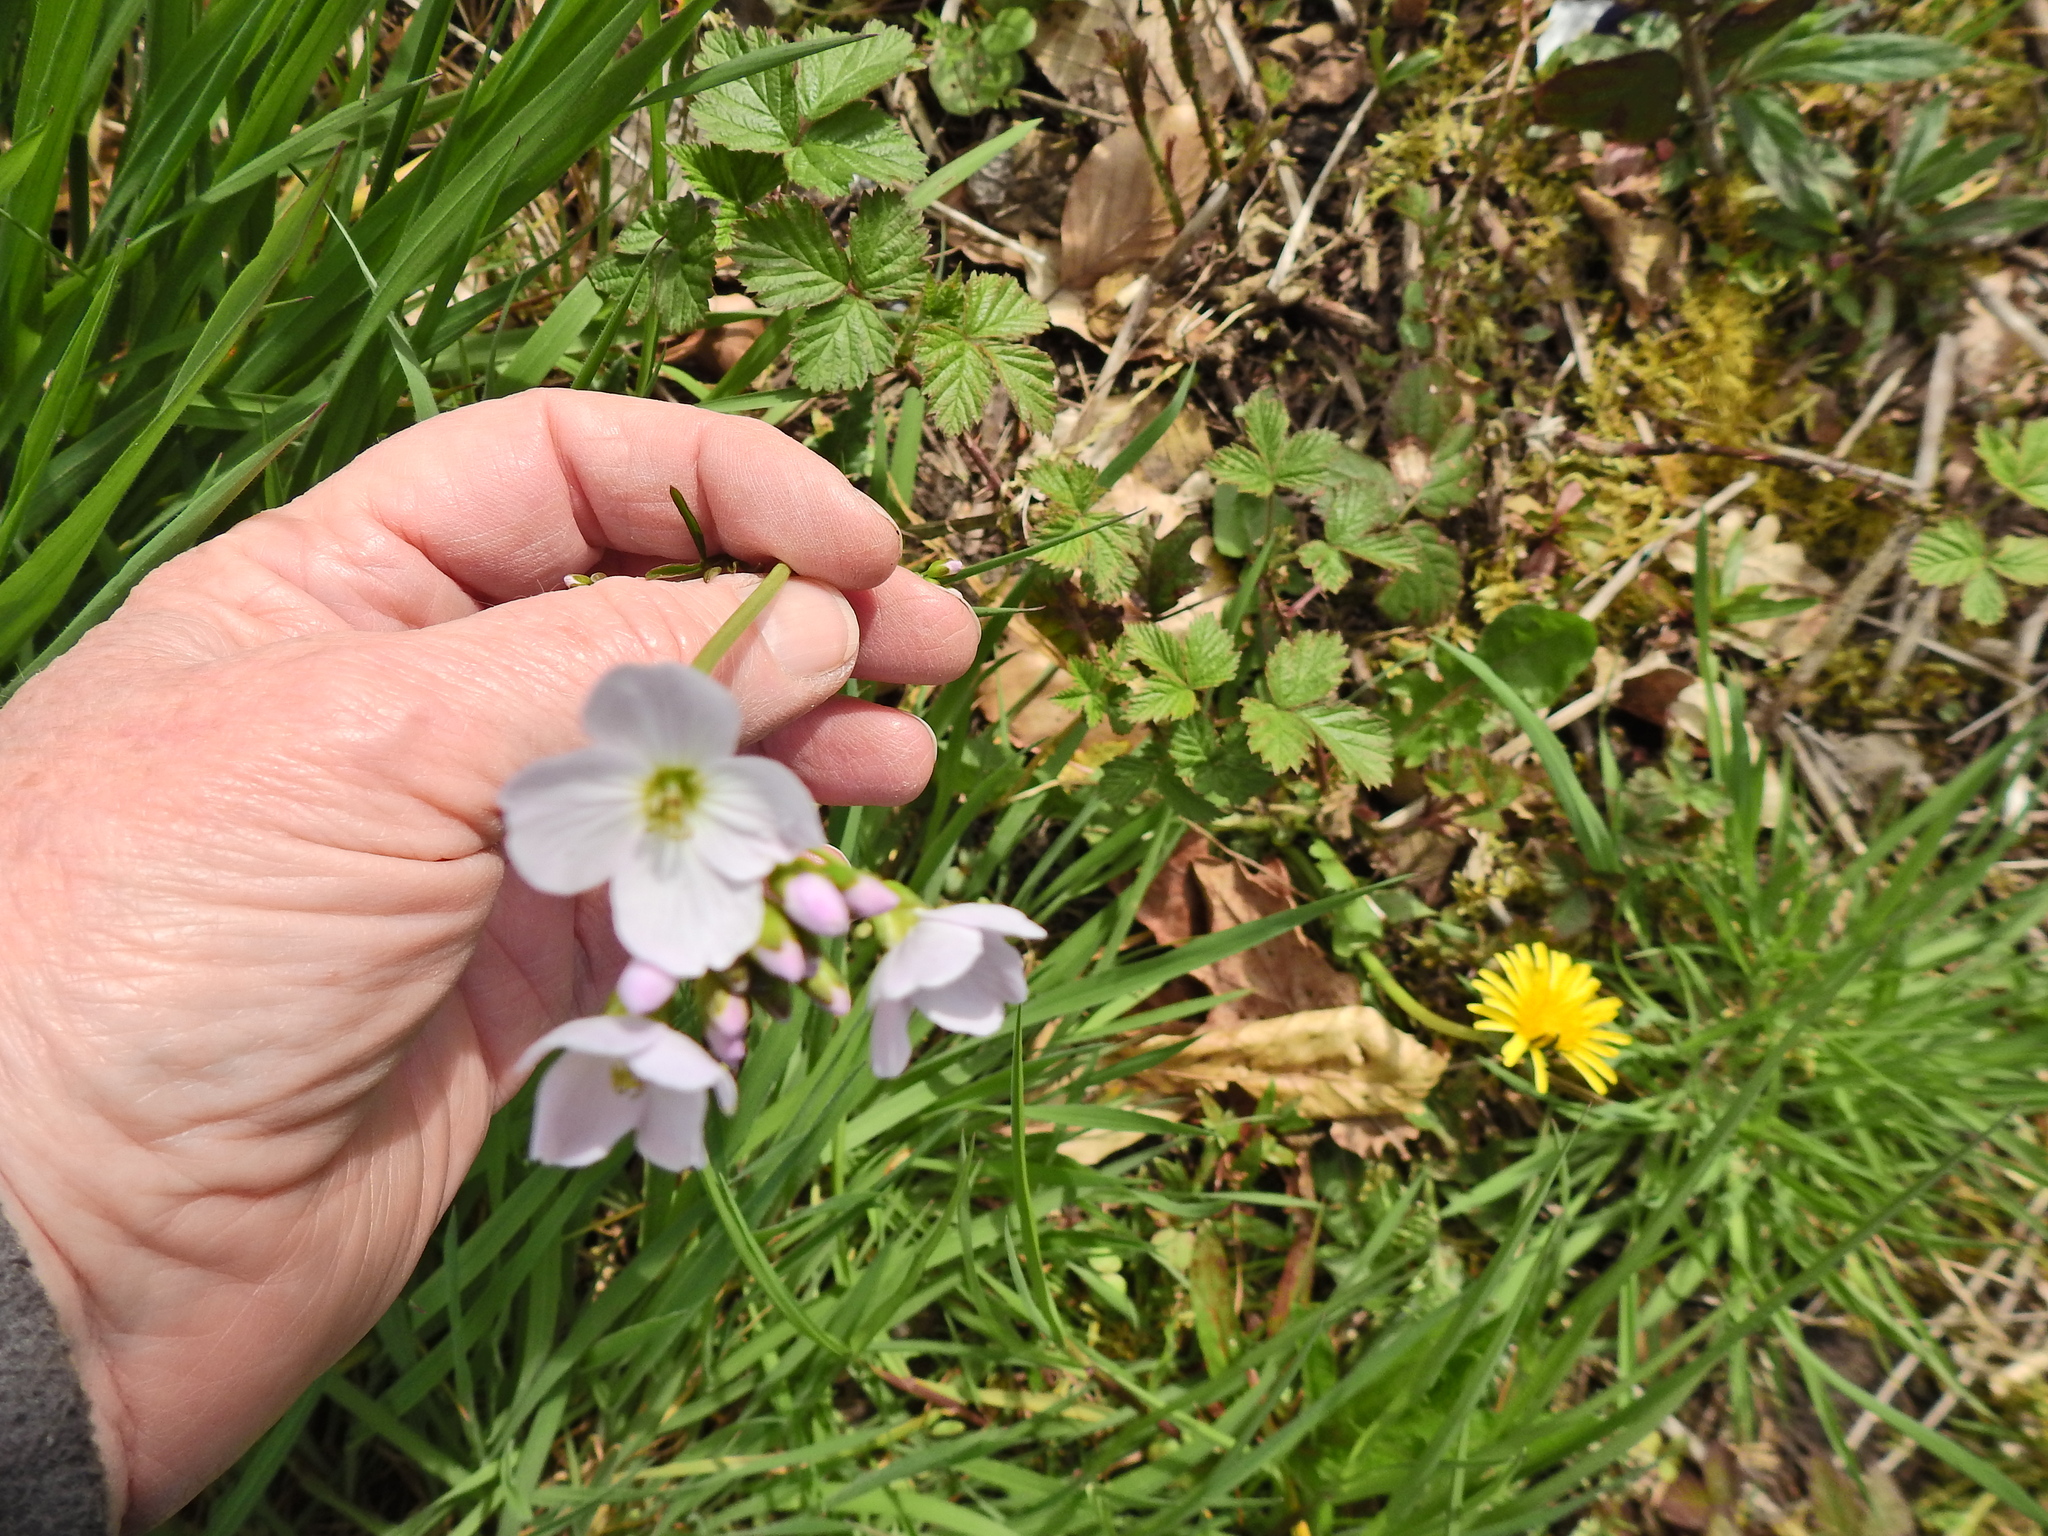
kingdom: Plantae
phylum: Tracheophyta
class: Magnoliopsida
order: Brassicales
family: Brassicaceae
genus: Cardamine
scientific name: Cardamine pratensis
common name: Cuckoo flower
